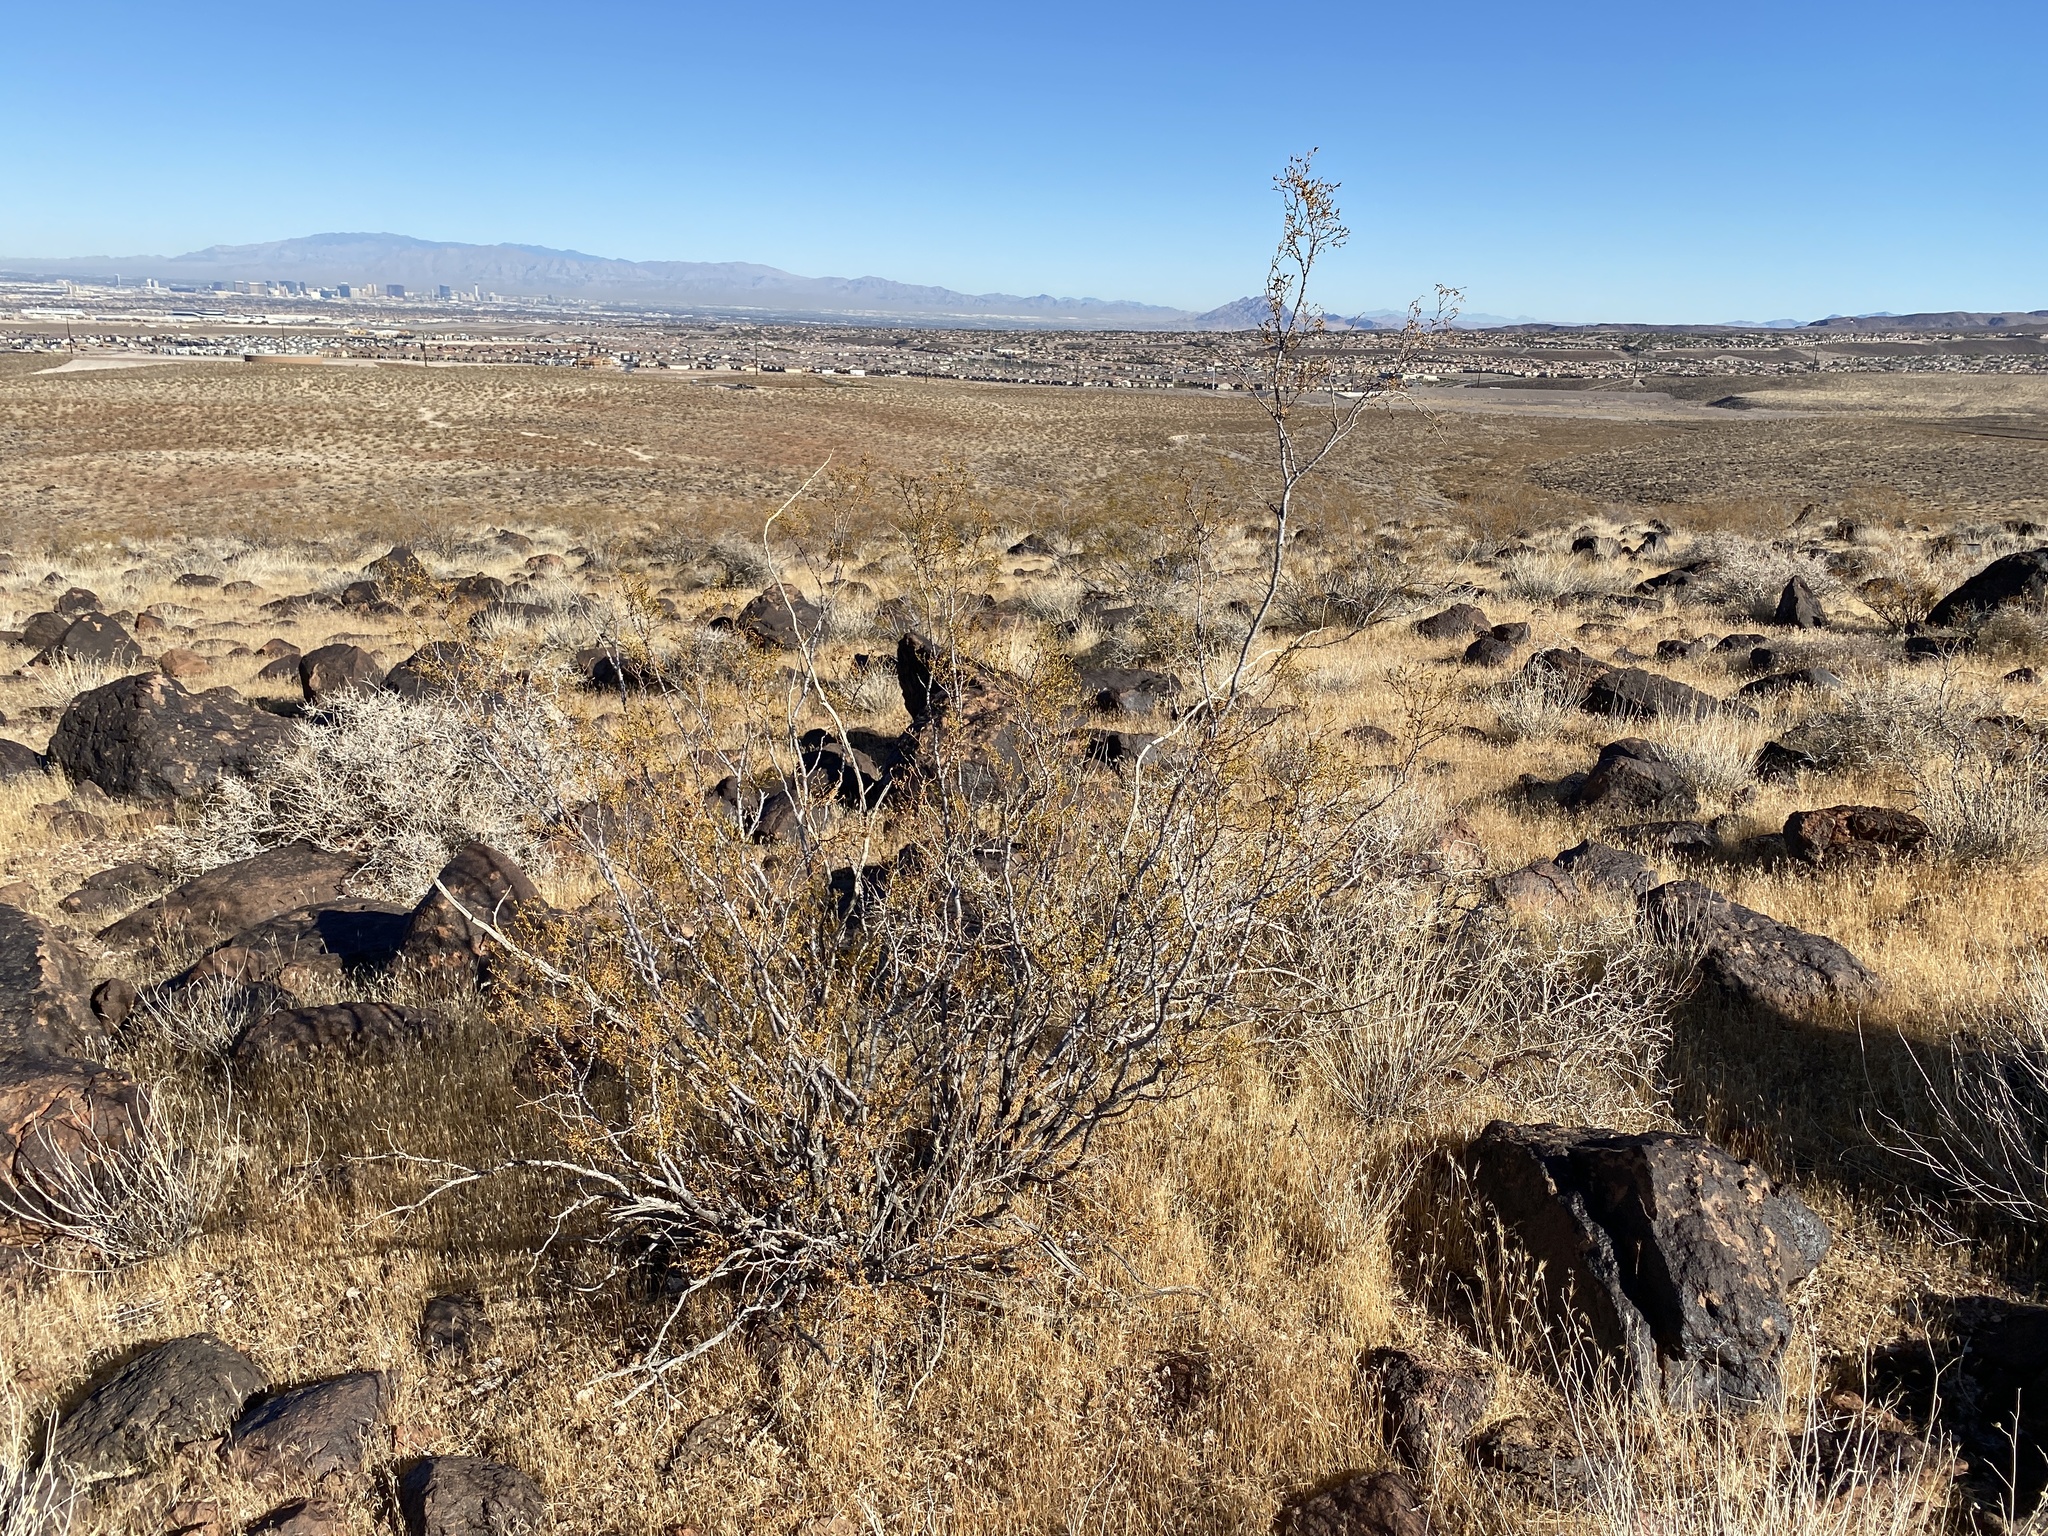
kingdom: Plantae
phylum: Tracheophyta
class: Magnoliopsida
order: Zygophyllales
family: Zygophyllaceae
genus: Larrea
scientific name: Larrea tridentata
